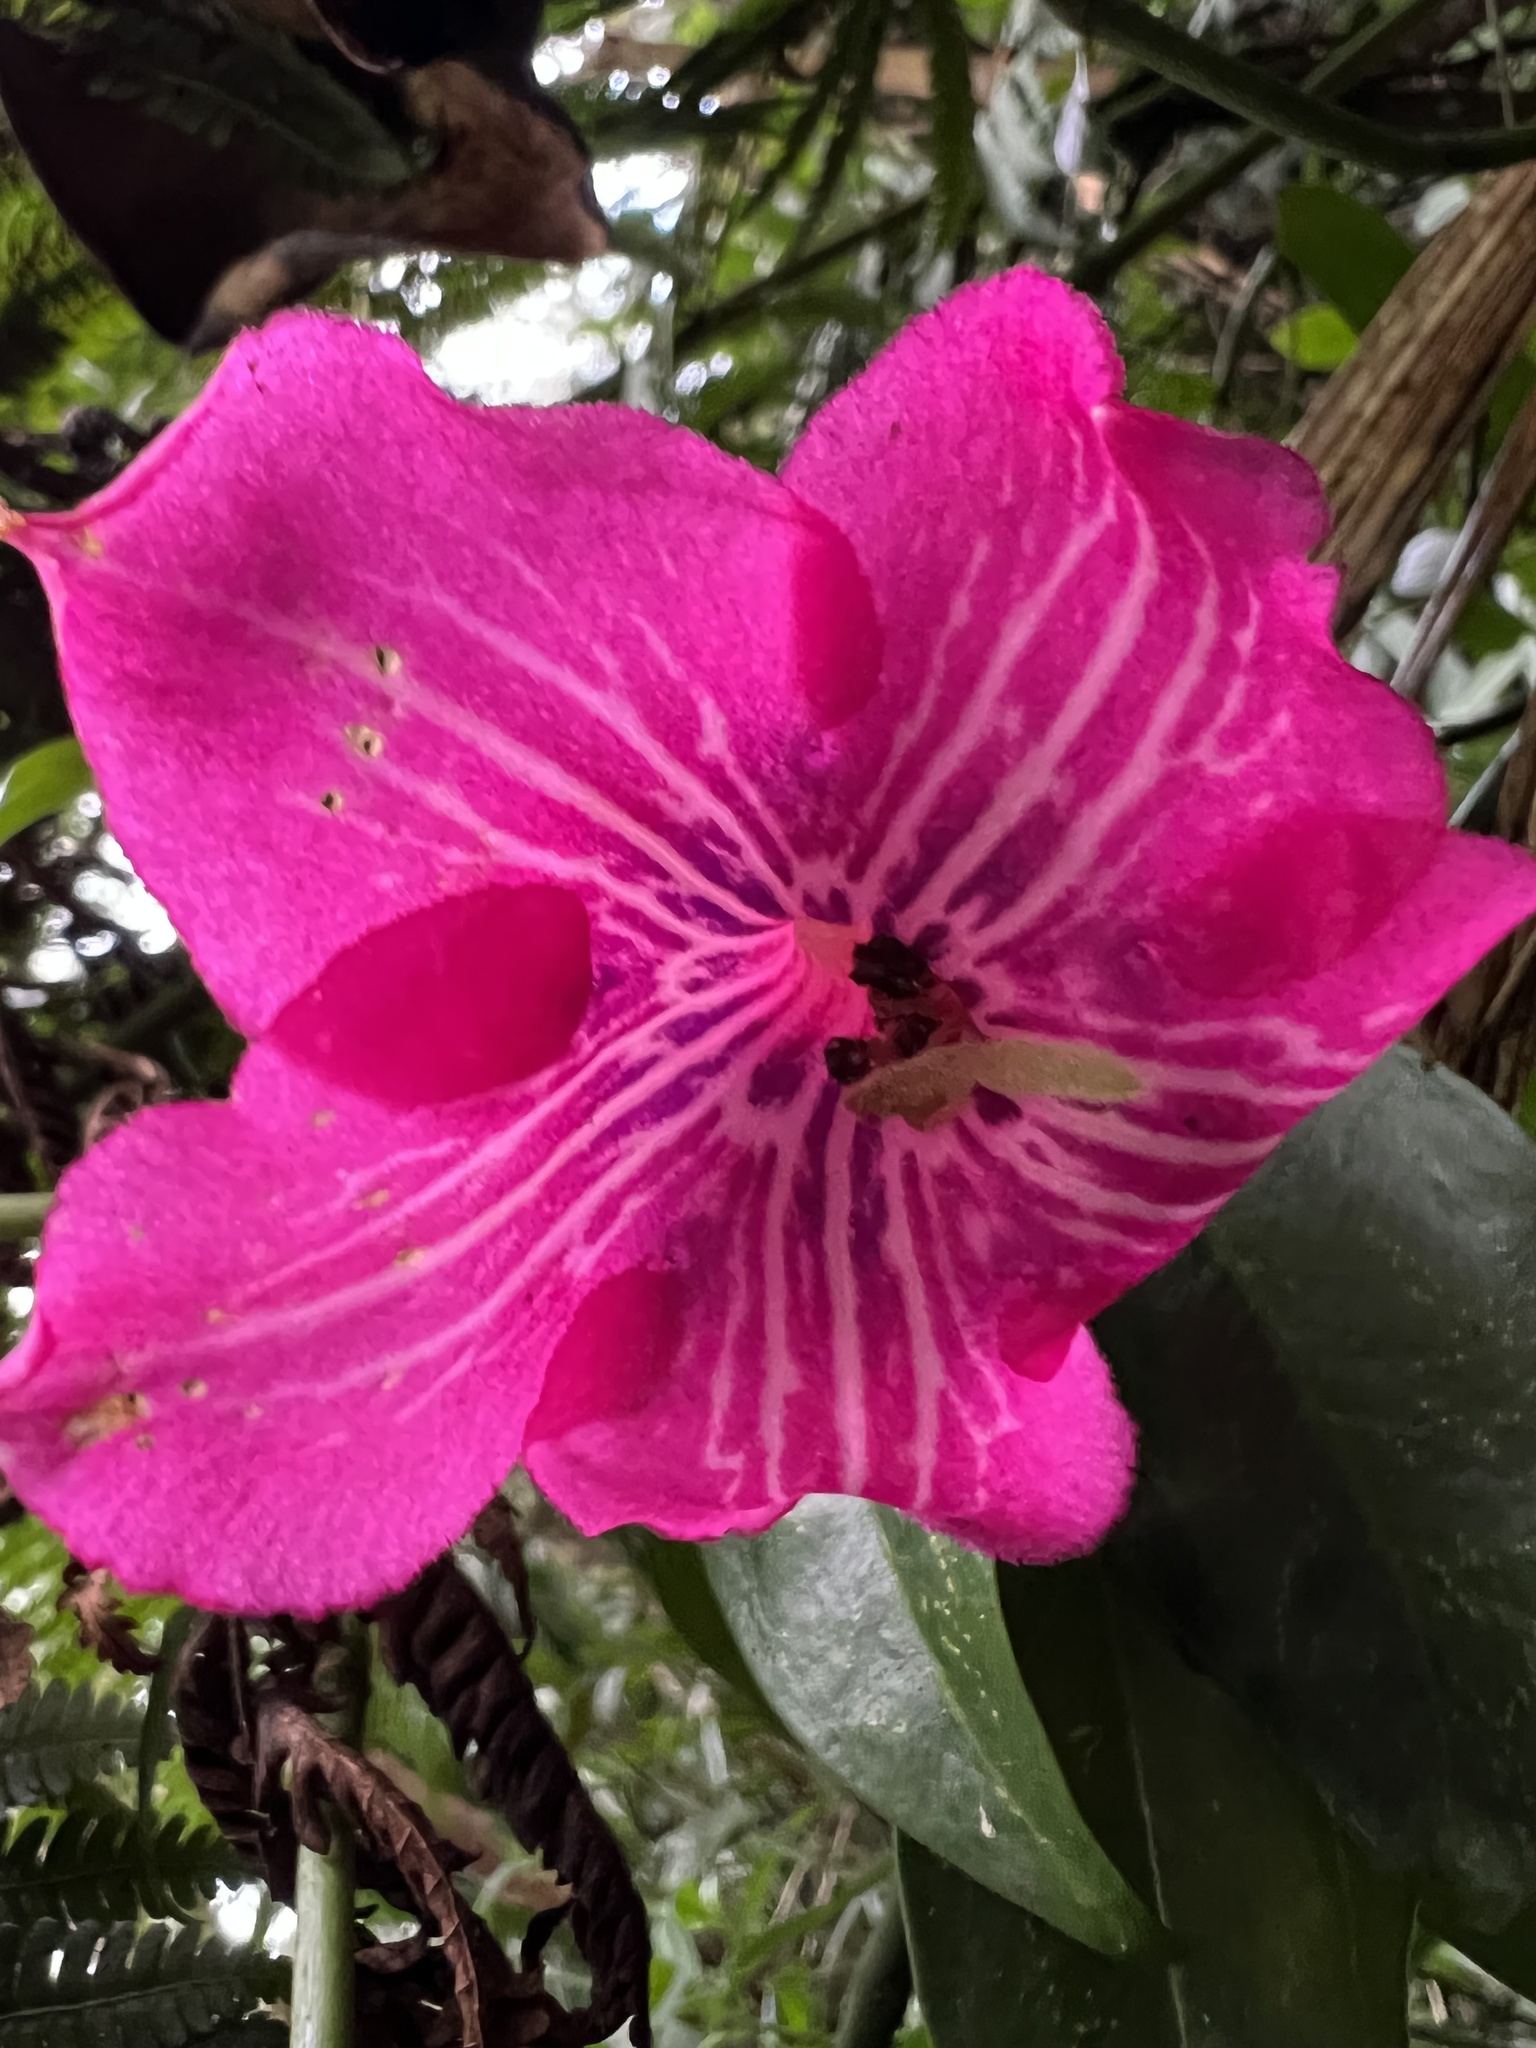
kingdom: Plantae
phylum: Tracheophyta
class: Magnoliopsida
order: Gentianales
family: Gentianaceae
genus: Symbolanthus
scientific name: Symbolanthus anomalus
